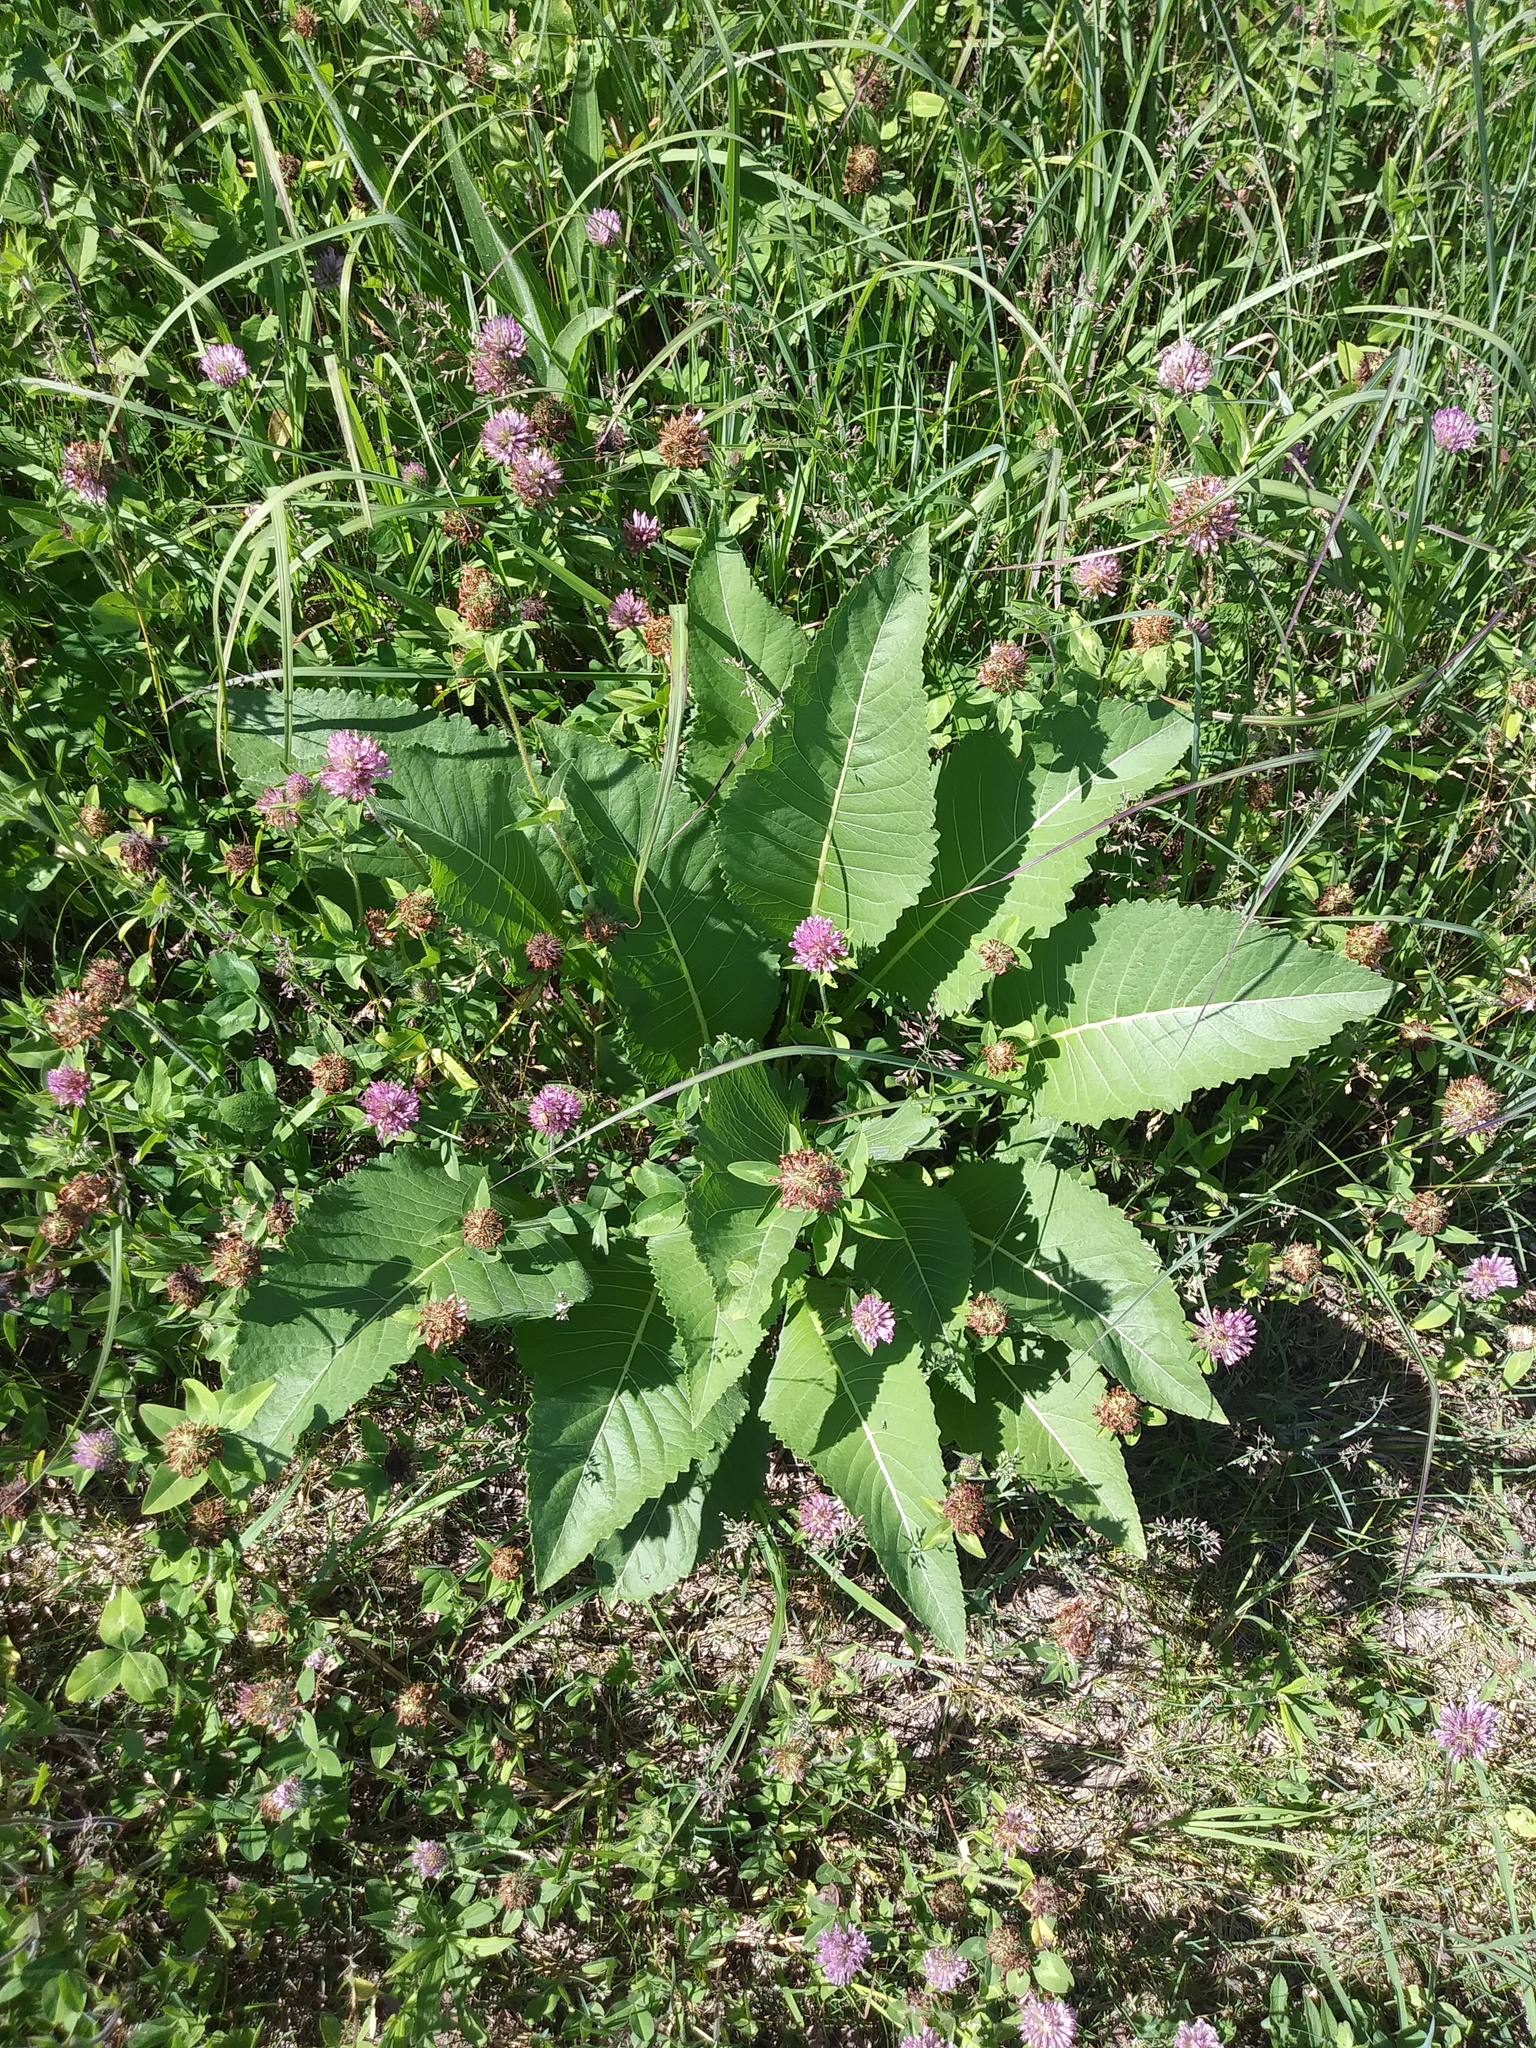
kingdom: Plantae
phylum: Tracheophyta
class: Magnoliopsida
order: Asterales
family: Asteraceae
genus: Parthenium
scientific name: Parthenium integrifolium
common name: American feverfew
